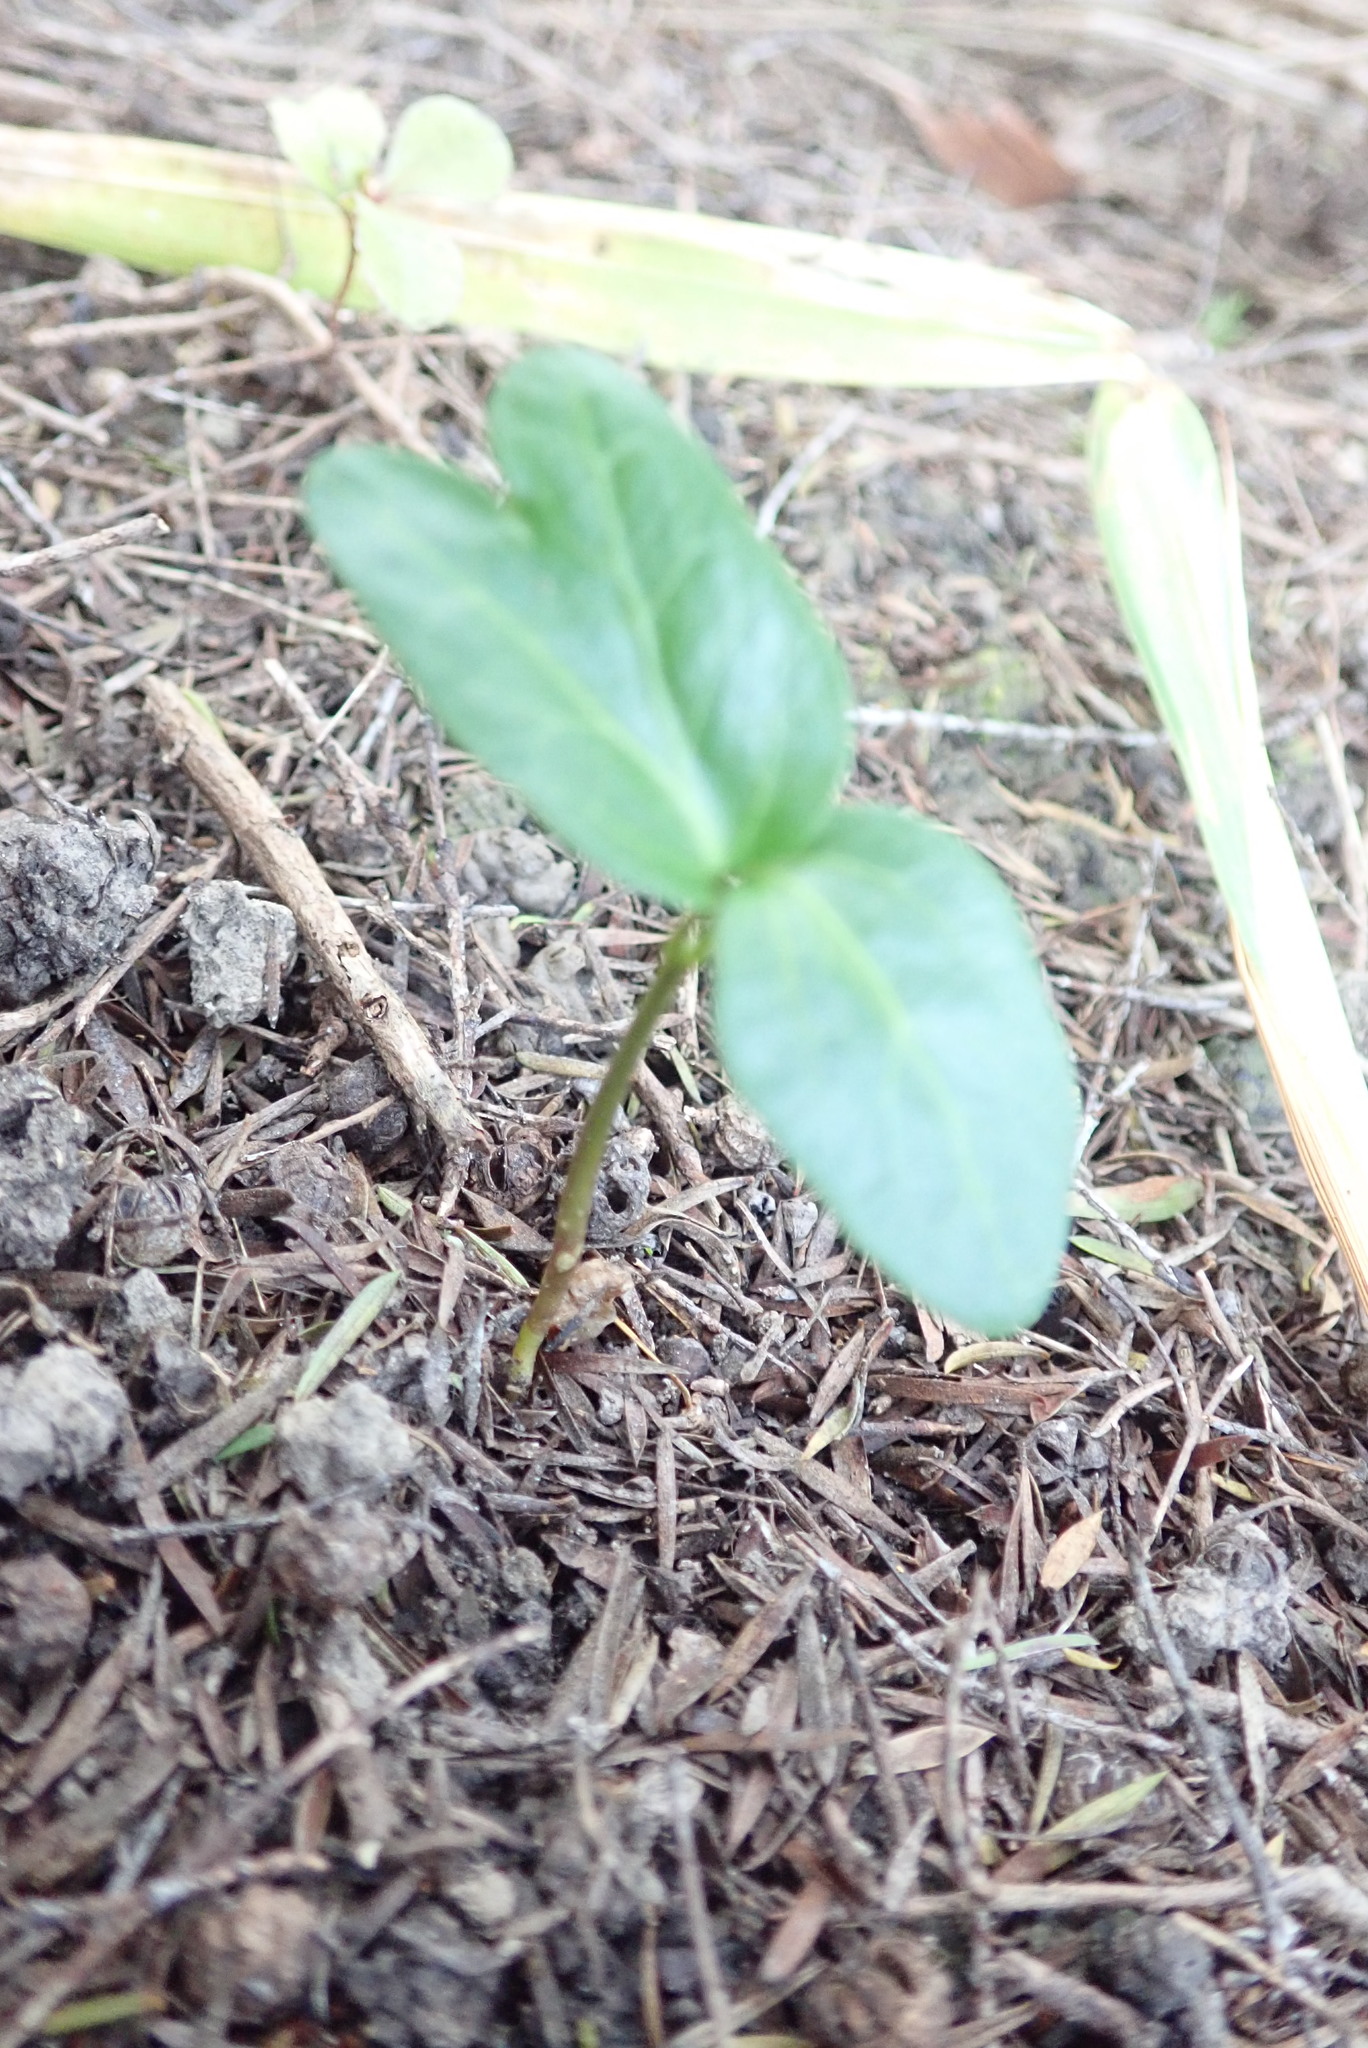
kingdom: Plantae
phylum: Tracheophyta
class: Magnoliopsida
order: Apiales
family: Araliaceae
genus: Hedera
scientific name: Hedera helix
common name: Ivy
